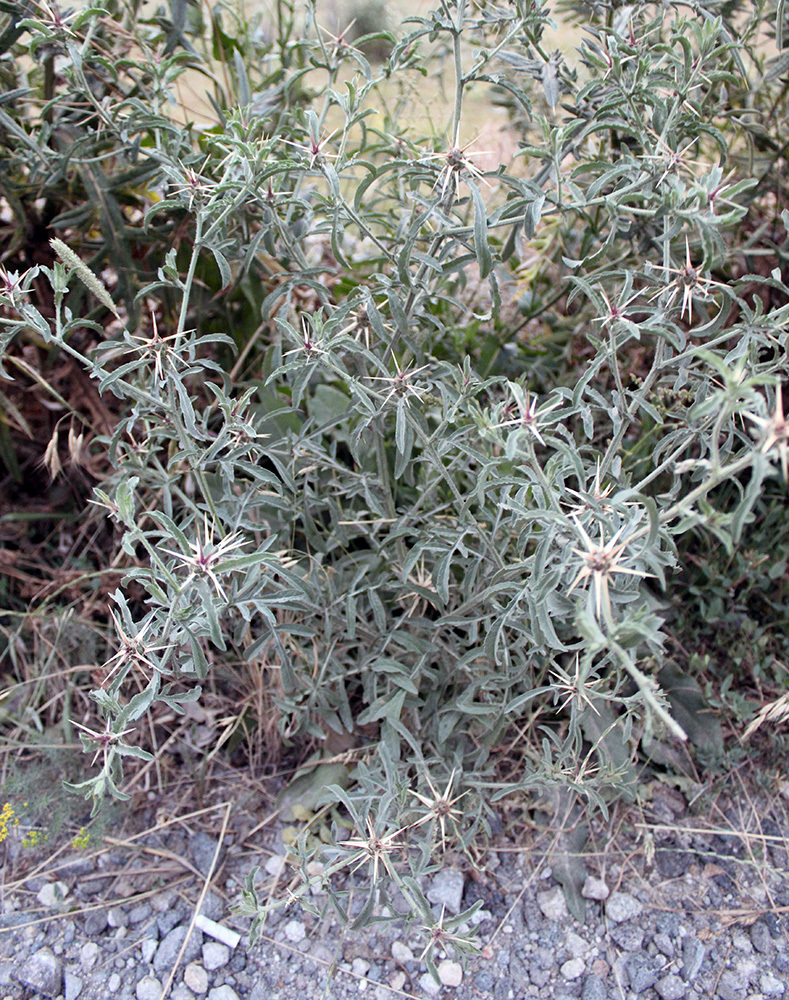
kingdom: Plantae
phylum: Tracheophyta
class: Magnoliopsida
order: Asterales
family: Asteraceae
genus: Centaurea
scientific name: Centaurea iberica
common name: Iberian knapweed
